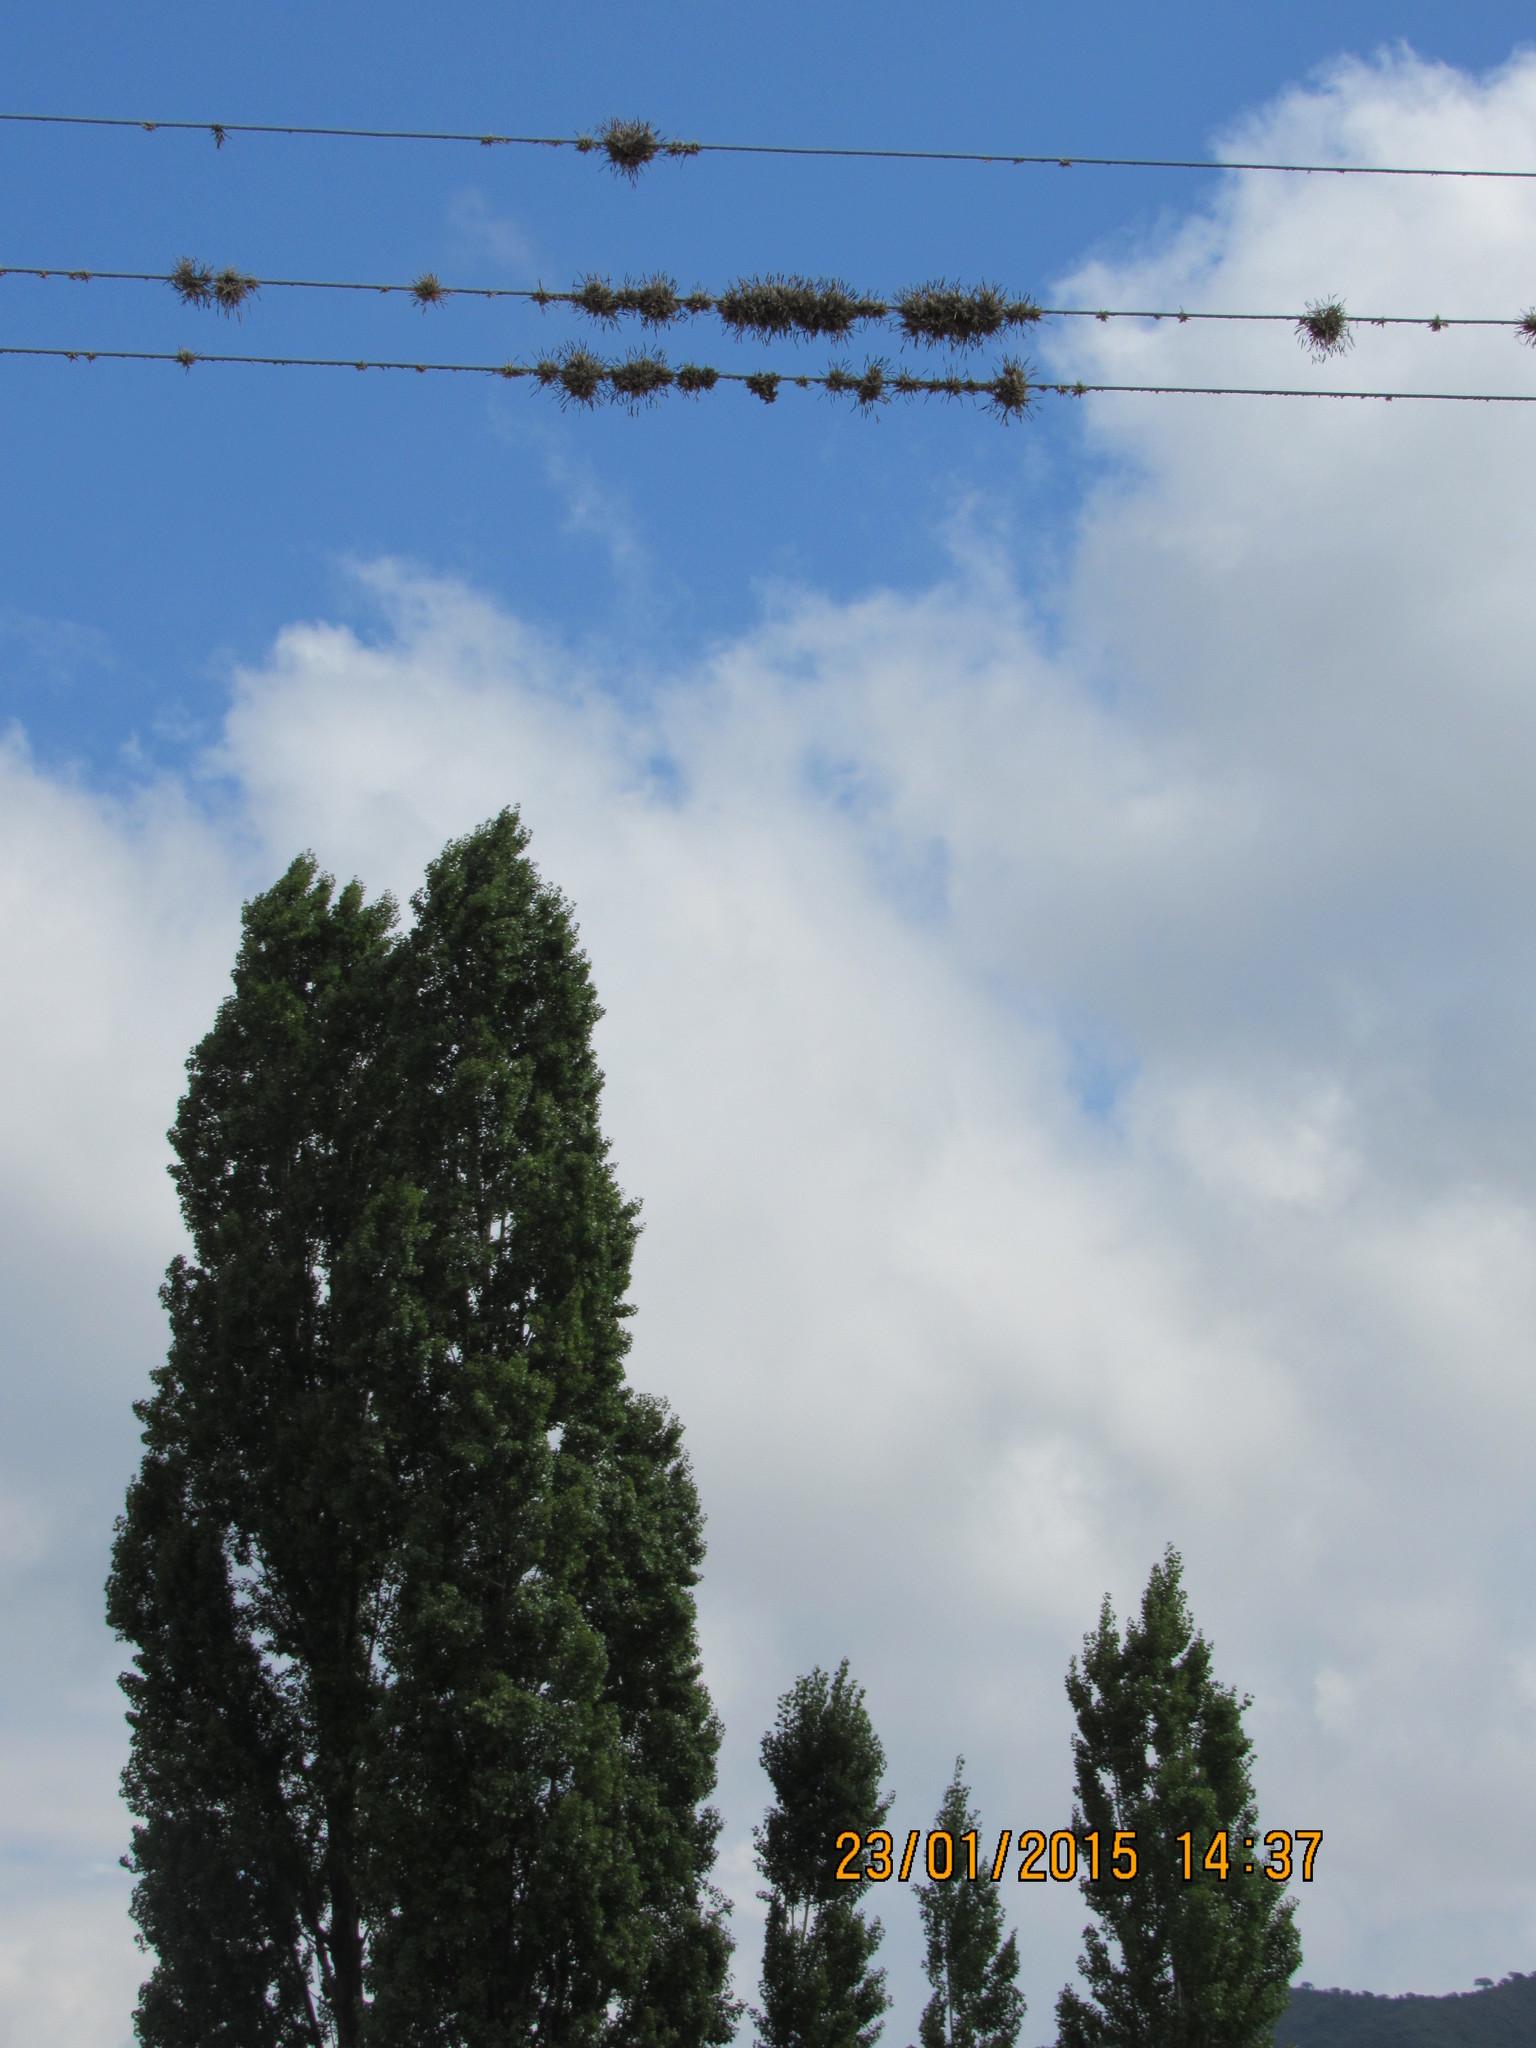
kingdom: Plantae
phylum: Tracheophyta
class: Liliopsida
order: Poales
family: Bromeliaceae
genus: Tillandsia
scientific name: Tillandsia capillaris
